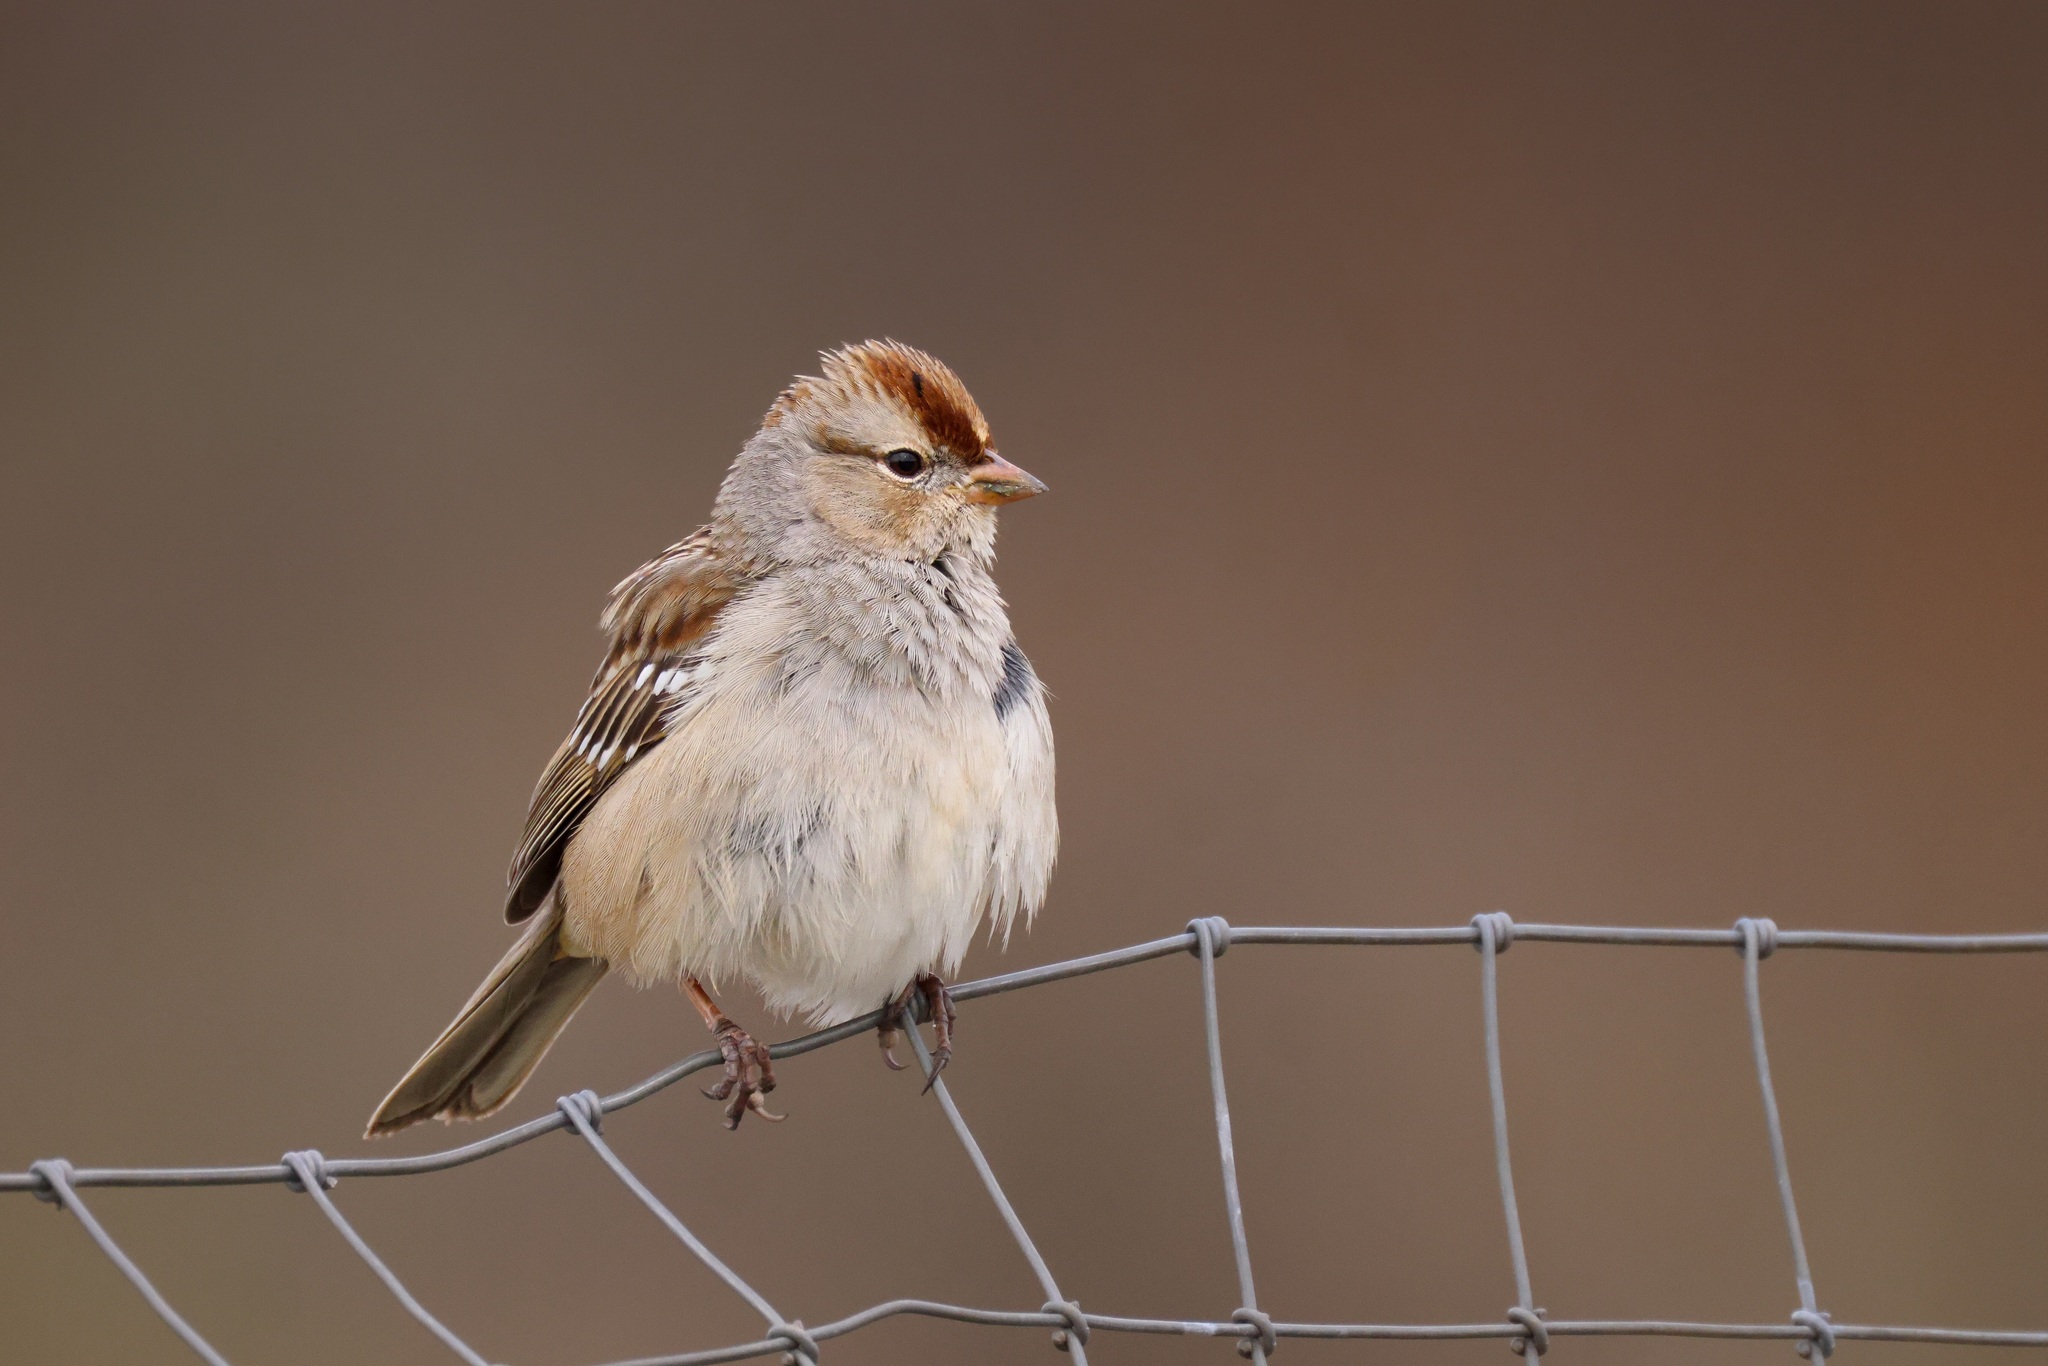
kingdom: Animalia
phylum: Chordata
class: Aves
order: Passeriformes
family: Passerellidae
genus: Zonotrichia
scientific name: Zonotrichia leucophrys
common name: White-crowned sparrow
